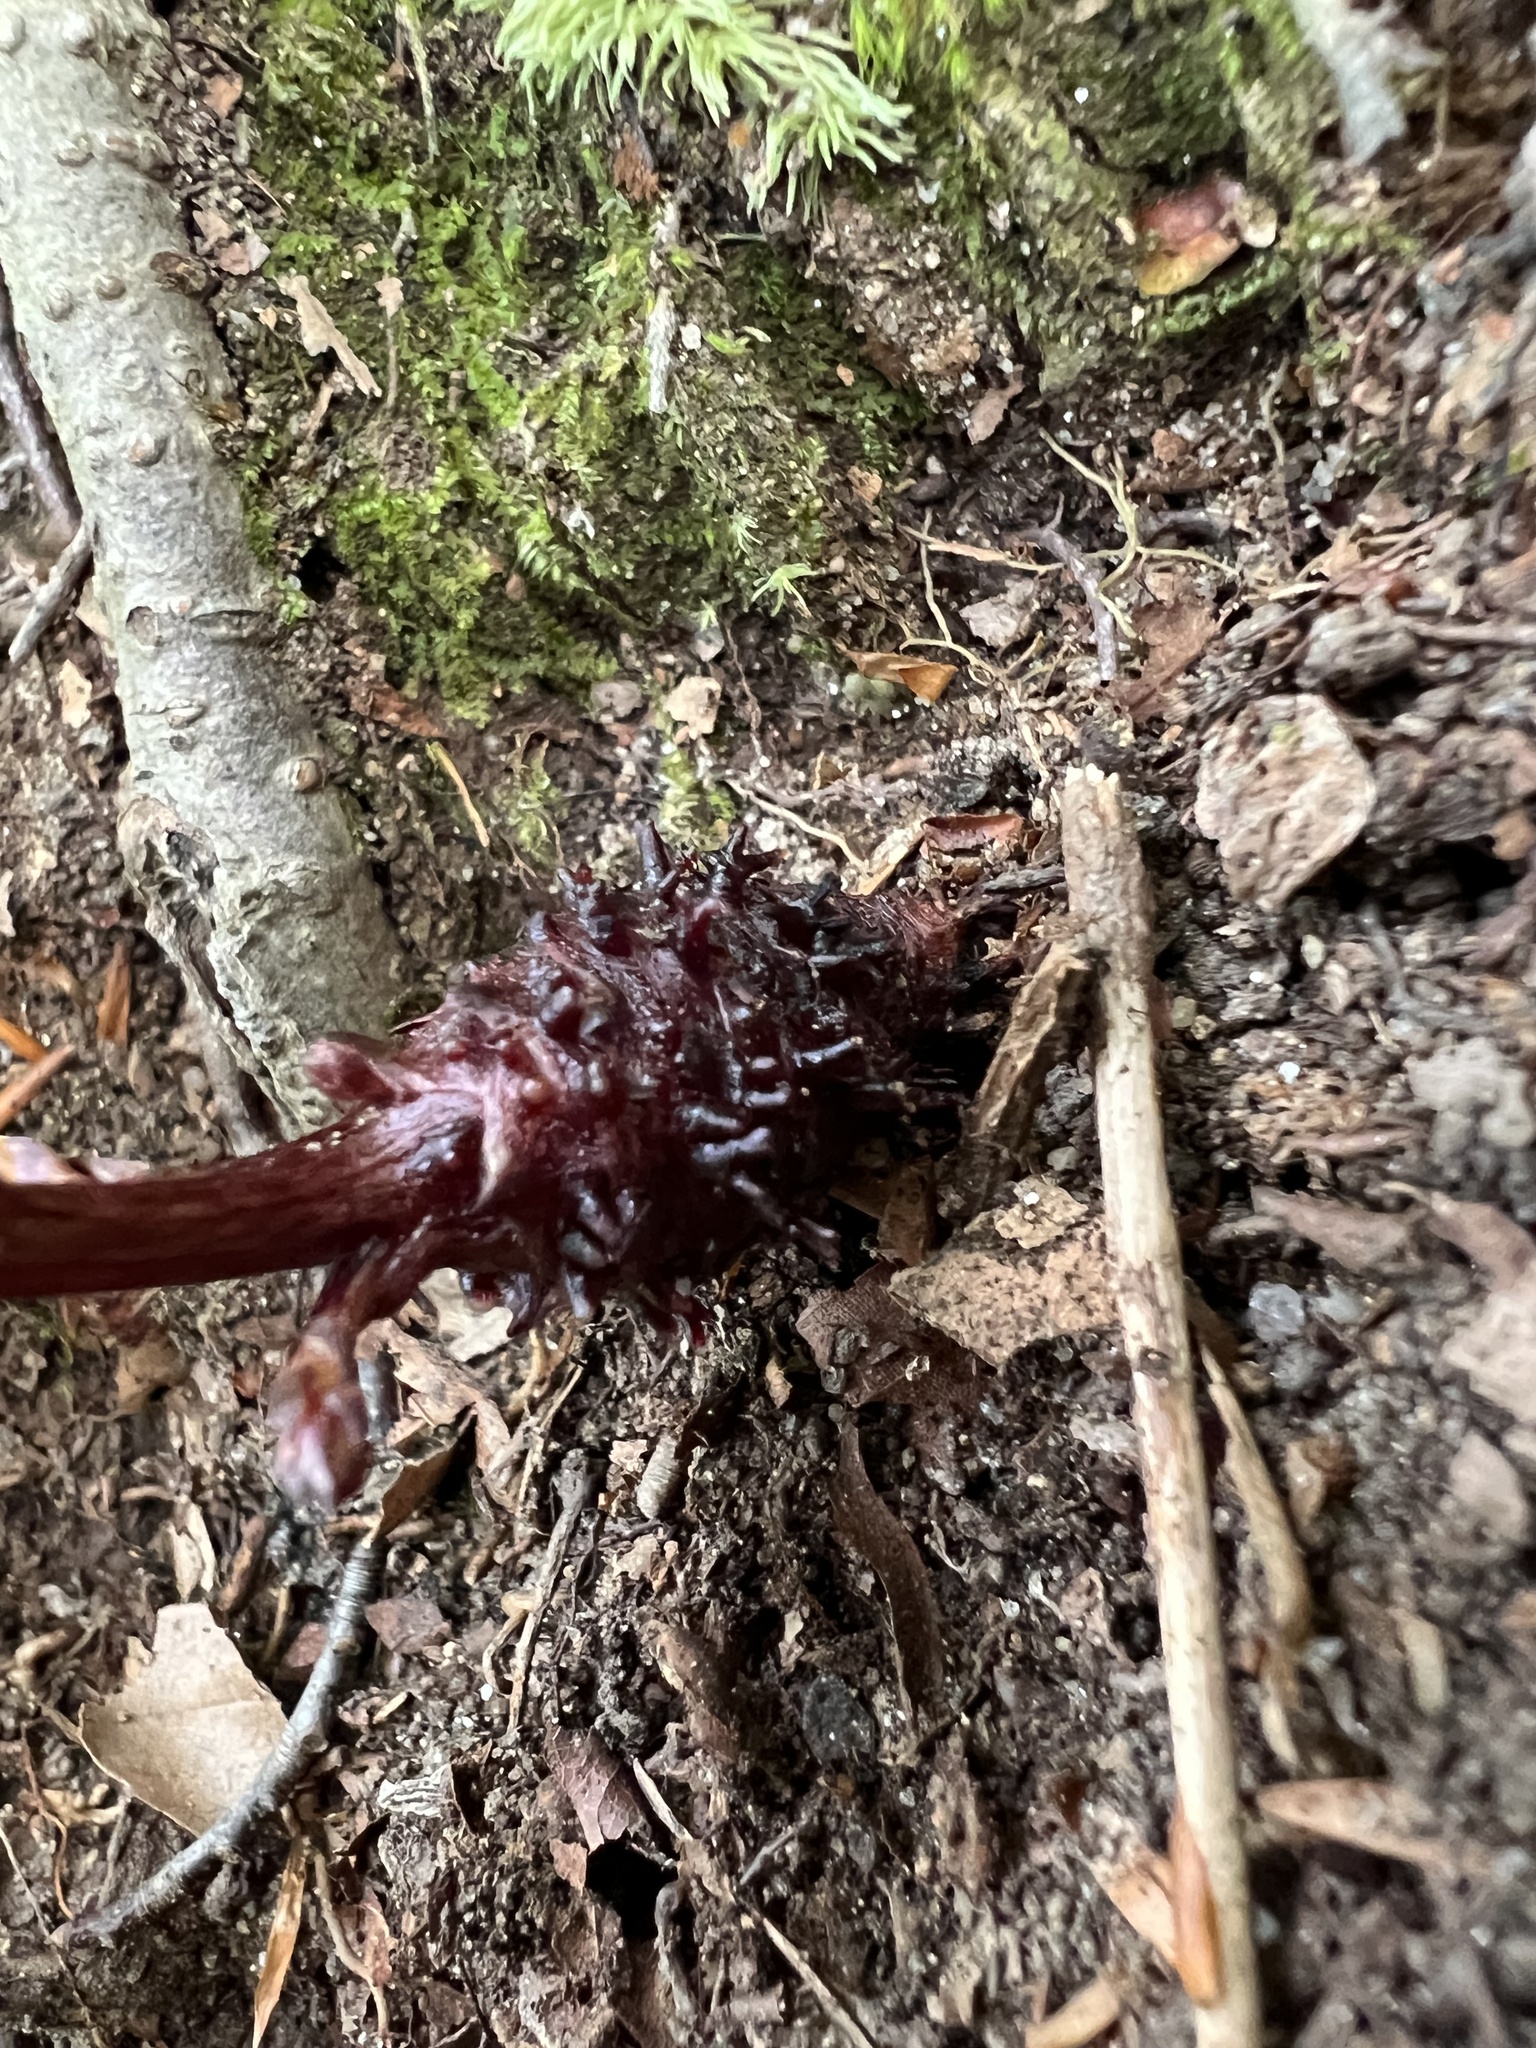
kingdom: Plantae
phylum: Tracheophyta
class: Magnoliopsida
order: Lamiales
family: Orobanchaceae
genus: Epifagus
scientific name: Epifagus virginiana
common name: Beechdrops
